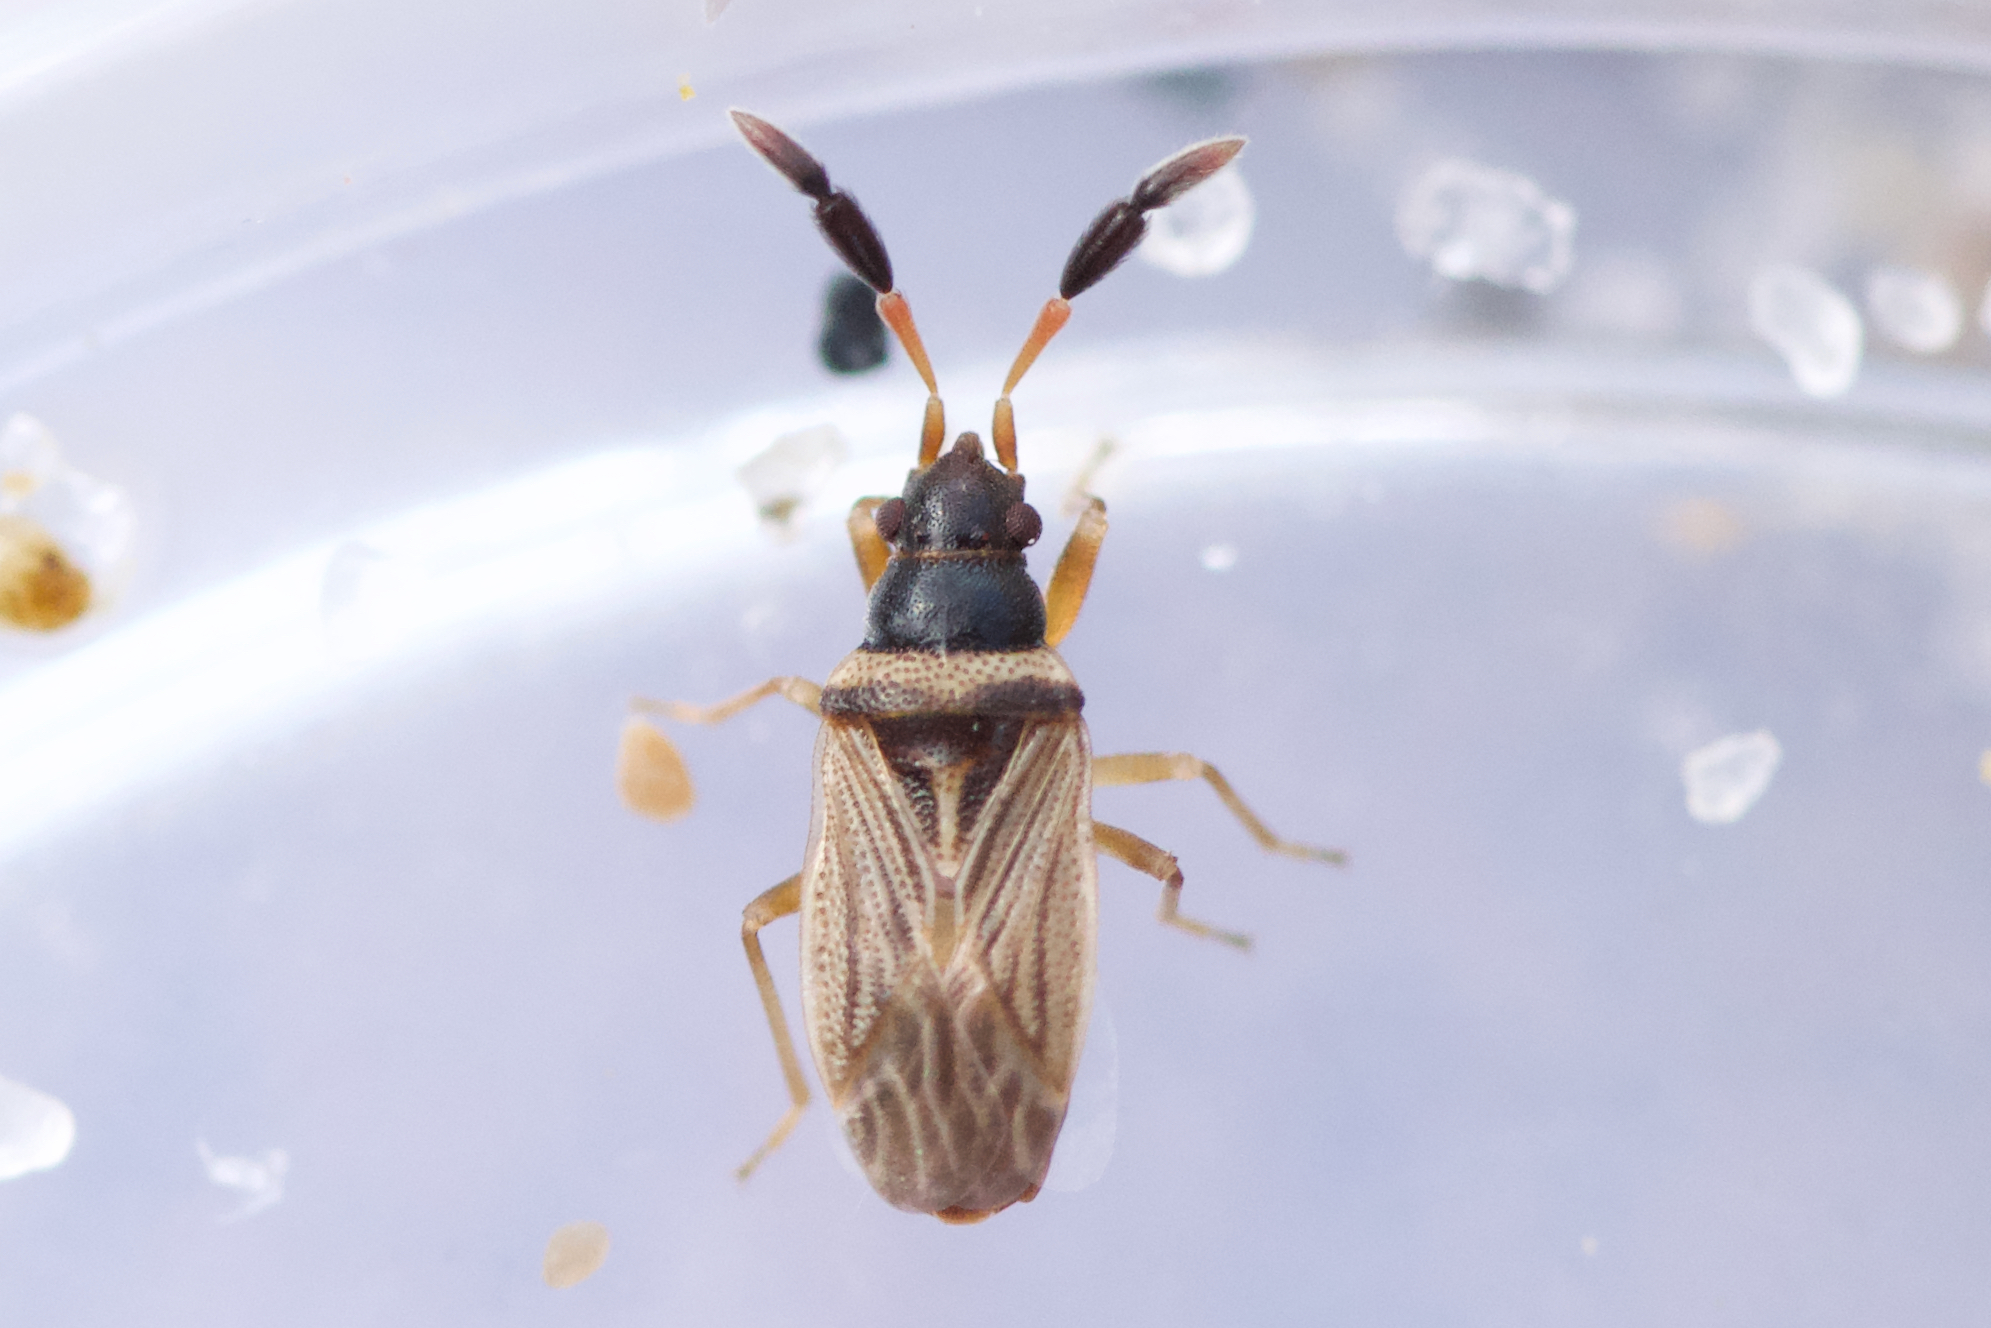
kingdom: Animalia
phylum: Arthropoda
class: Insecta
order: Hemiptera
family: Rhyparochromidae
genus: Ptochiomera
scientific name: Ptochiomera nodosa
